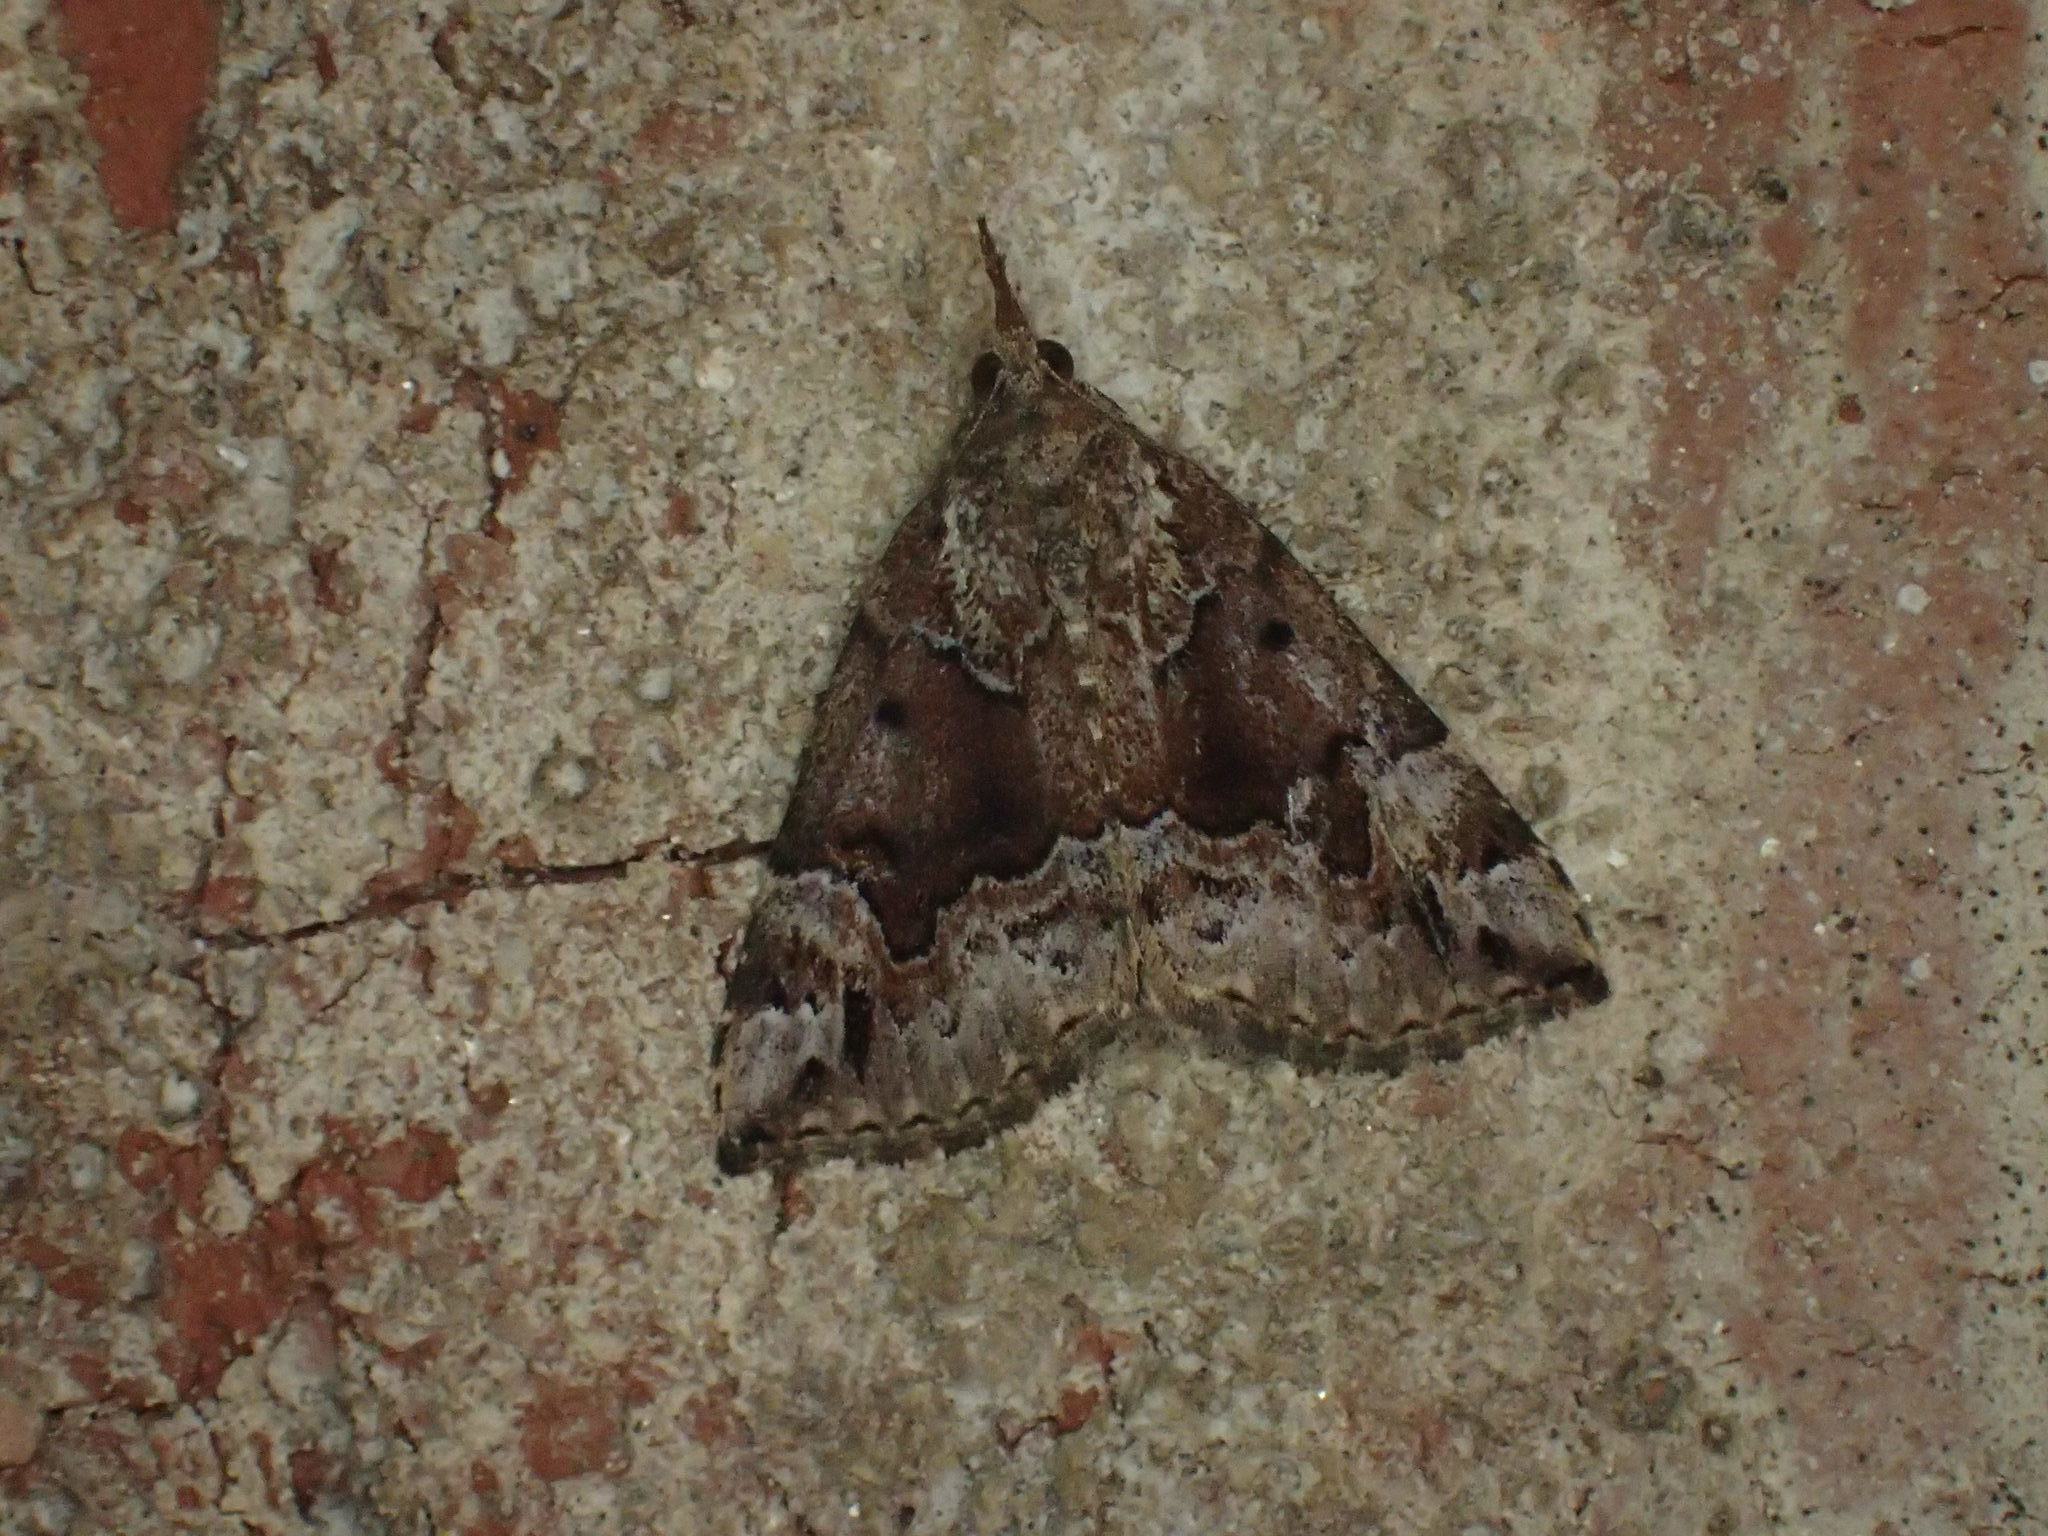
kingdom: Animalia
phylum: Arthropoda
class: Insecta
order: Lepidoptera
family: Erebidae
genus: Hypena
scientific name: Hypena palparia
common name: Mottled bomolocha moth
